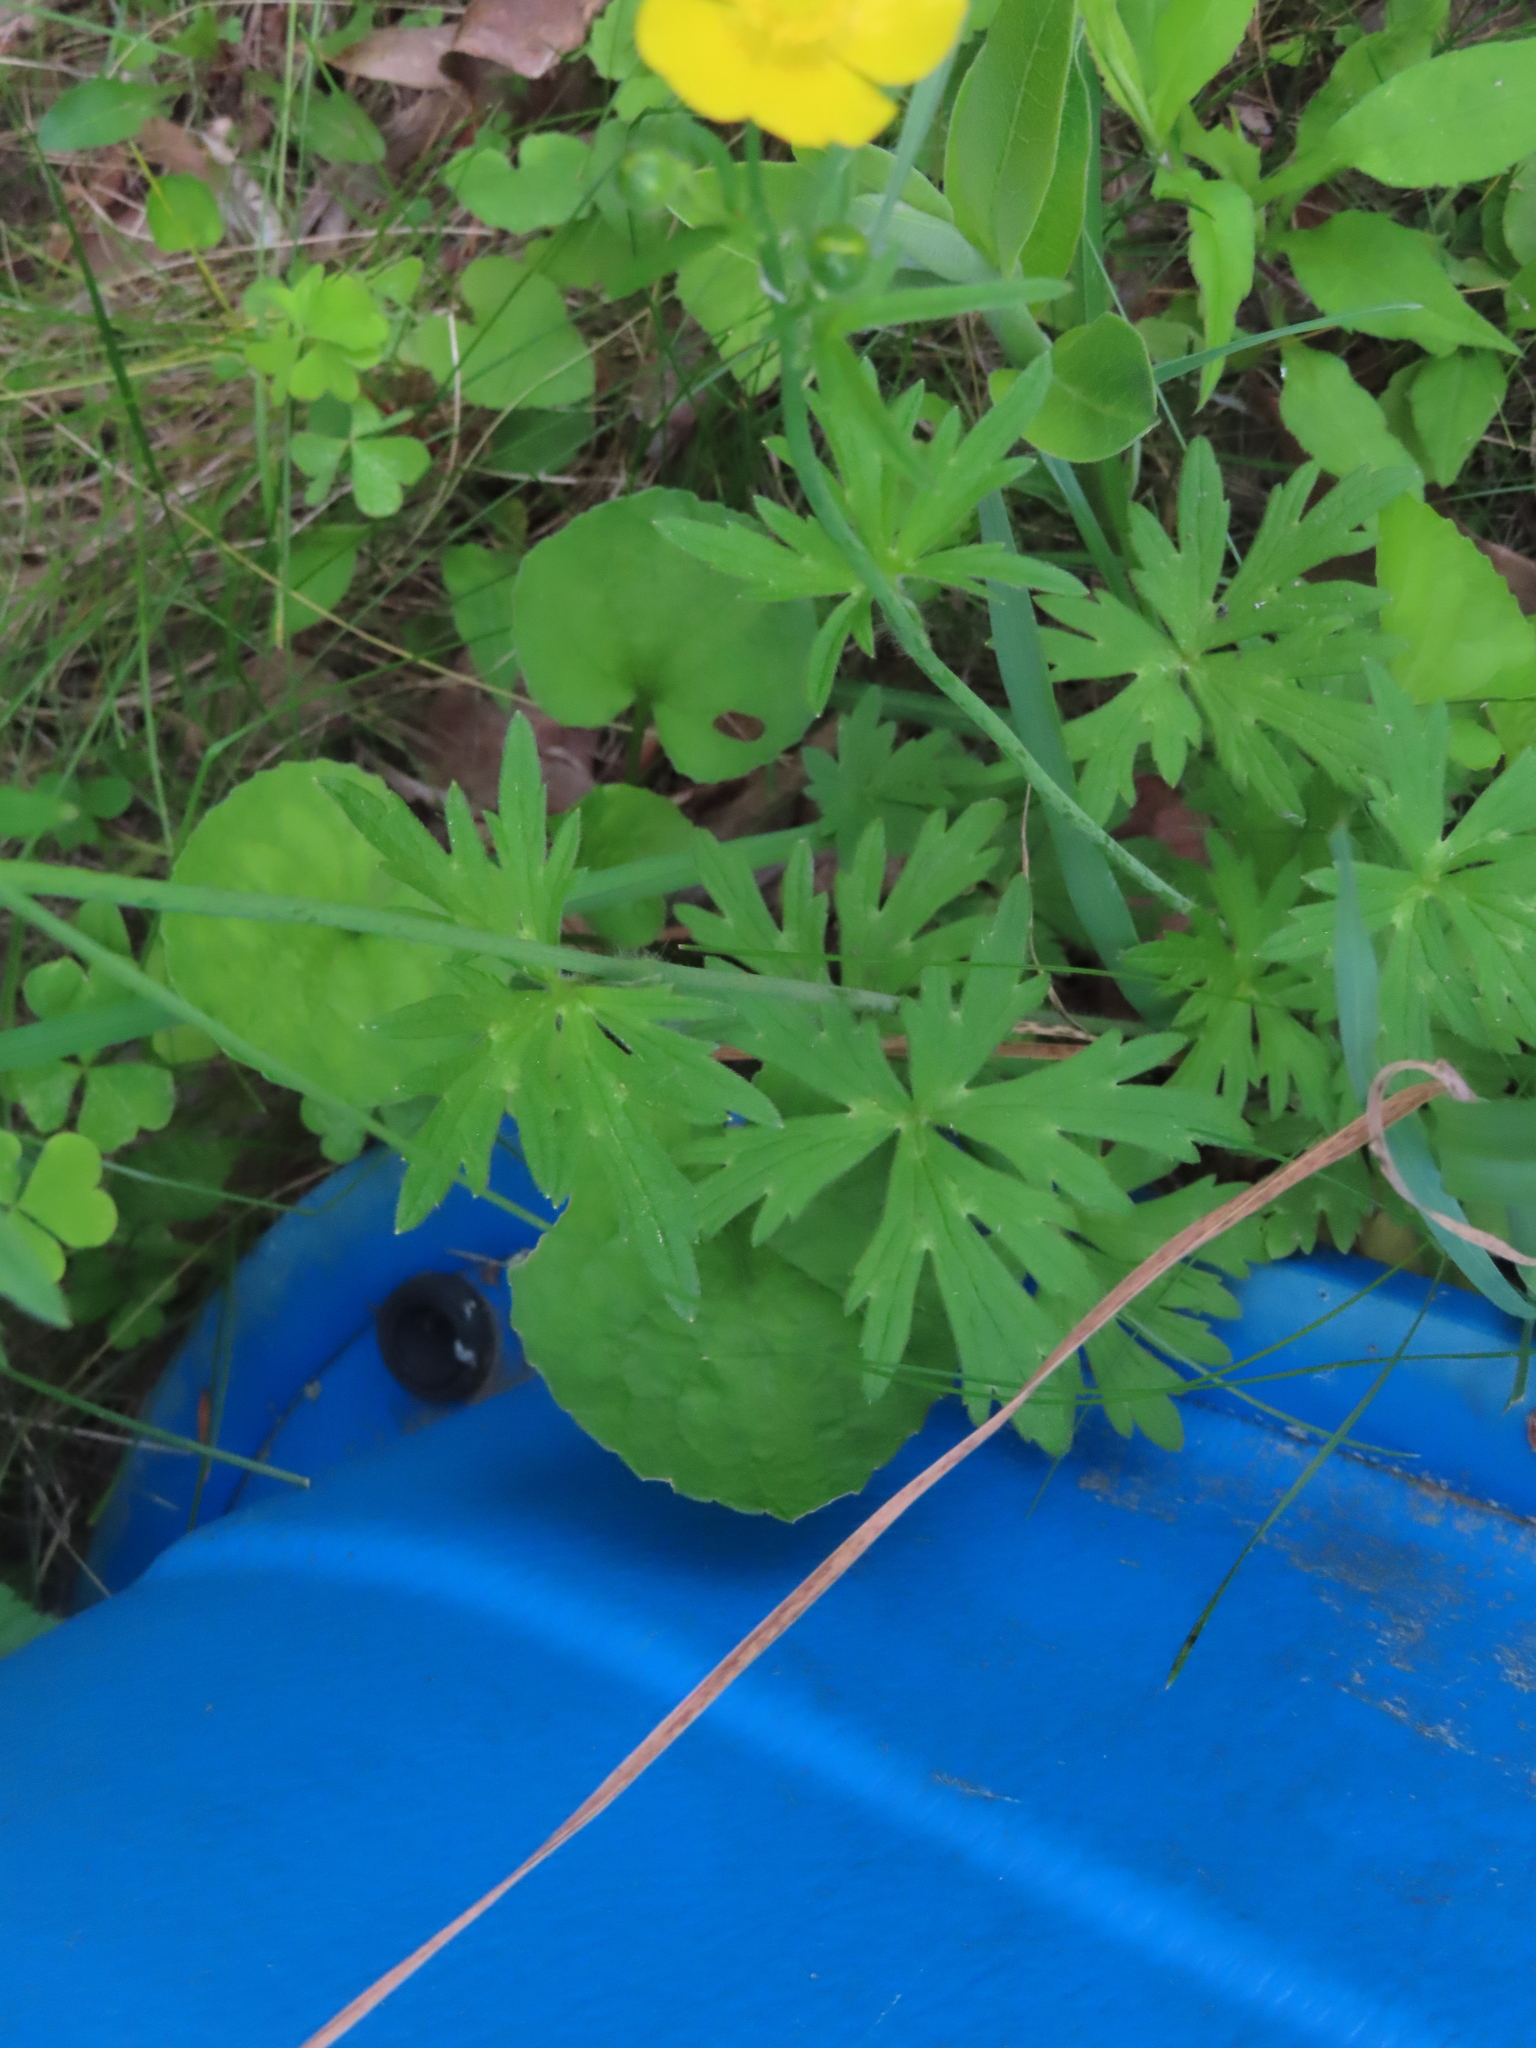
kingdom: Plantae
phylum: Tracheophyta
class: Magnoliopsida
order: Ranunculales
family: Ranunculaceae
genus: Ranunculus
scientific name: Ranunculus acris
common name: Meadow buttercup
